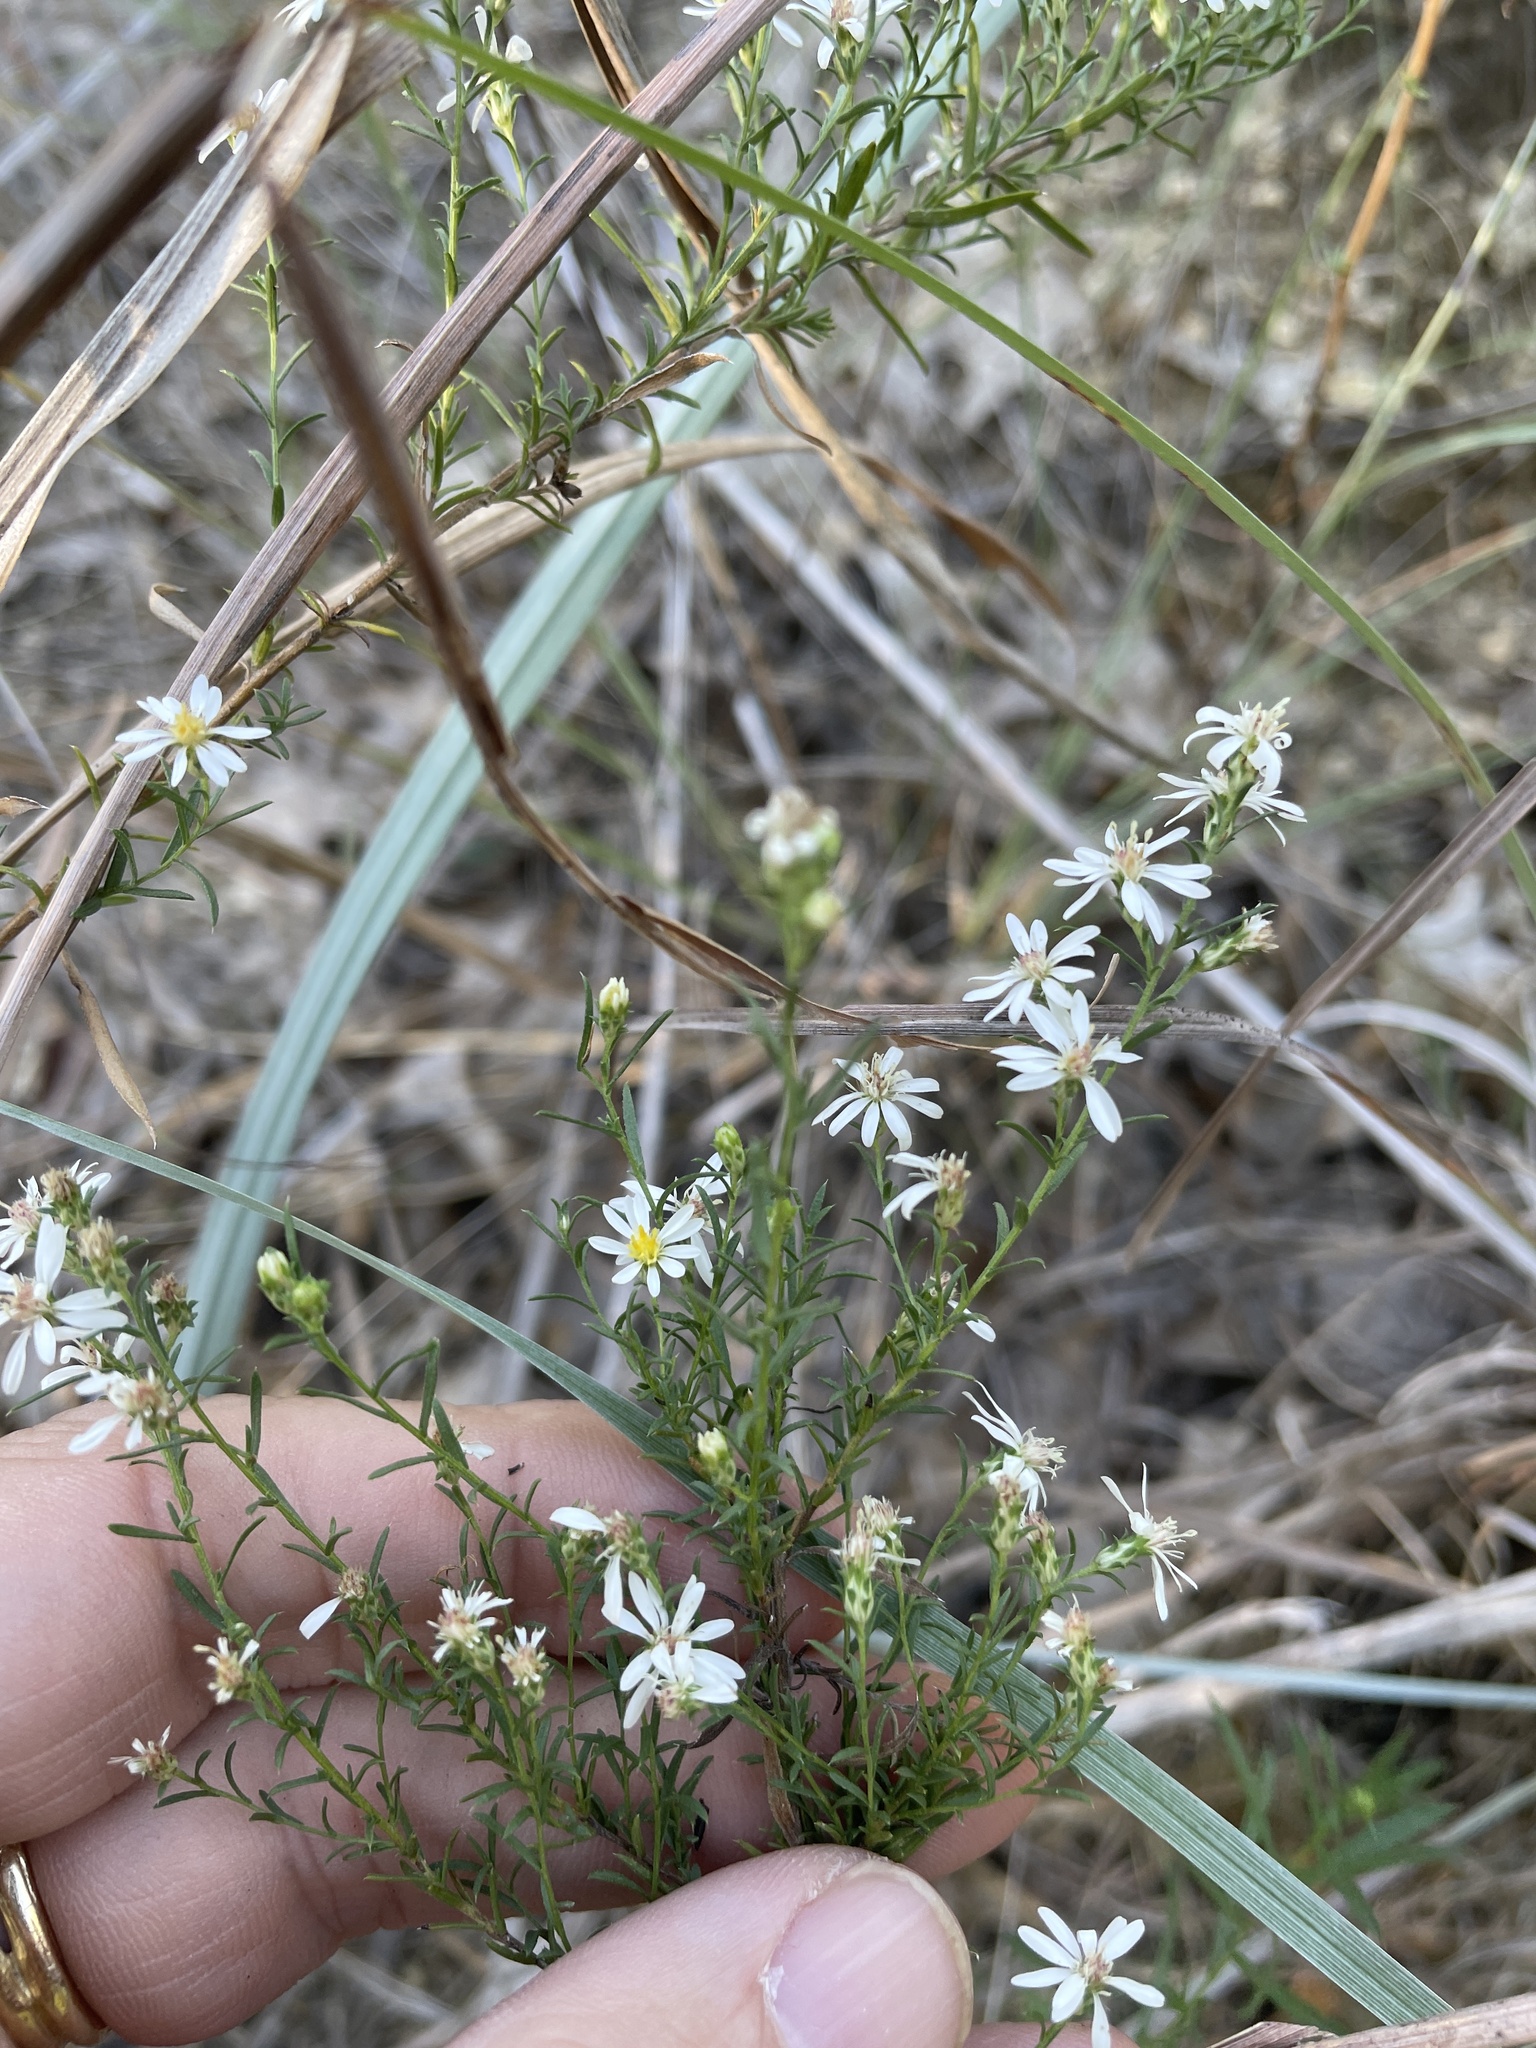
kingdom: Plantae
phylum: Tracheophyta
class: Magnoliopsida
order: Asterales
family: Asteraceae
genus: Symphyotrichum
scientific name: Symphyotrichum ericoides
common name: Heath aster
